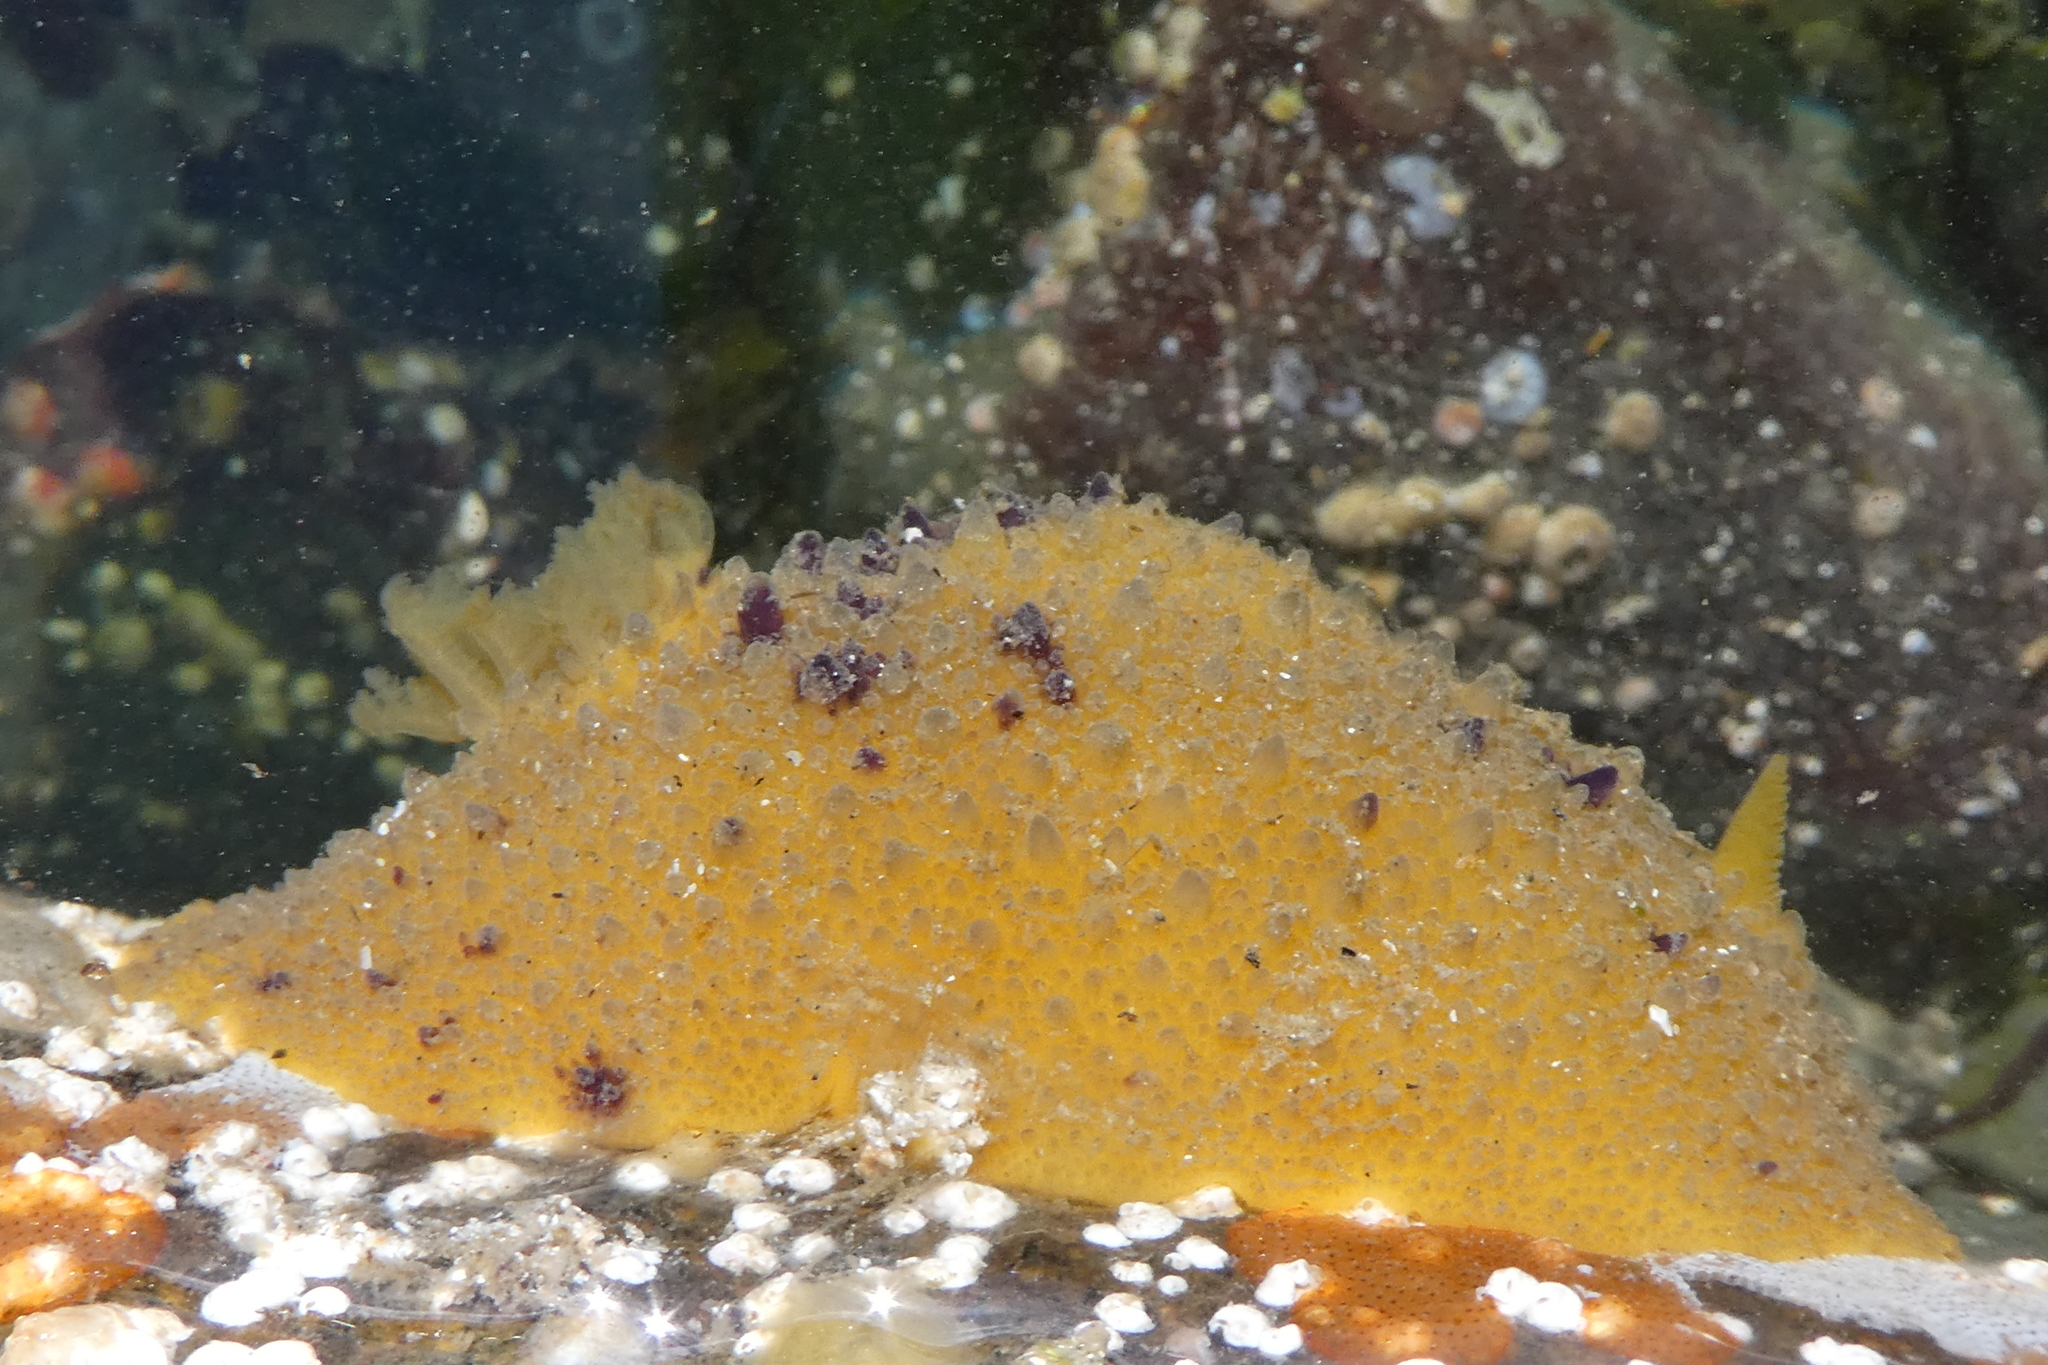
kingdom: Animalia
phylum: Mollusca
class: Gastropoda
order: Nudibranchia
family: Dorididae
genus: Doris
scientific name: Doris montereyensis
